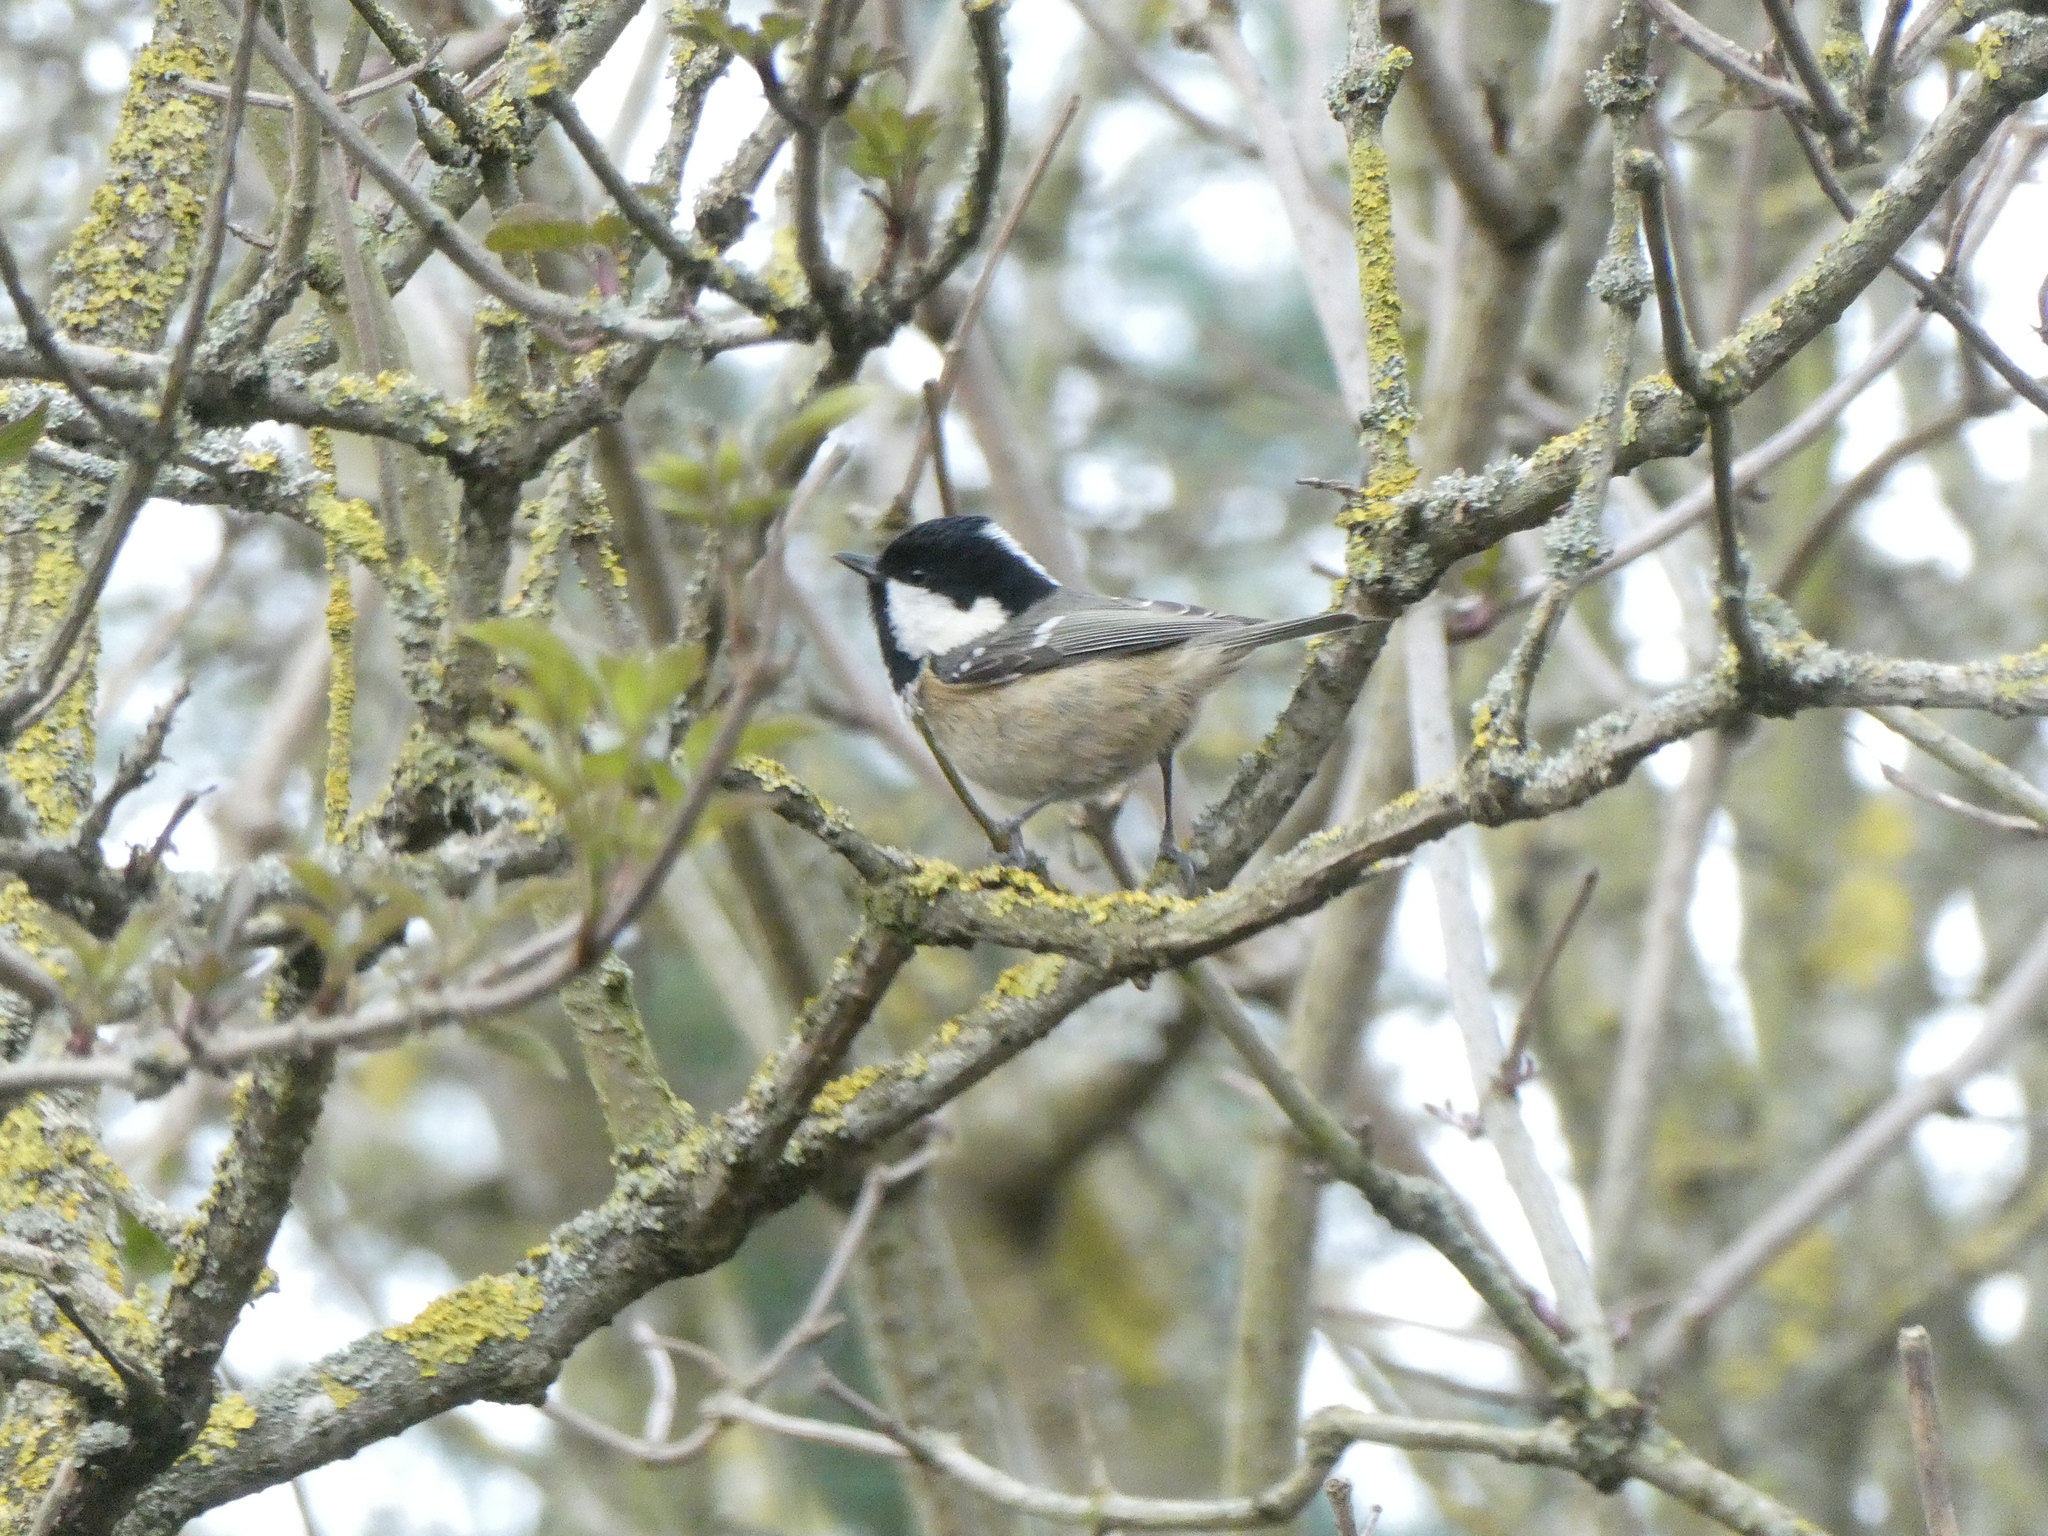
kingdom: Animalia
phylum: Chordata
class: Aves
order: Passeriformes
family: Paridae
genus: Periparus
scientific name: Periparus ater
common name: Coal tit
